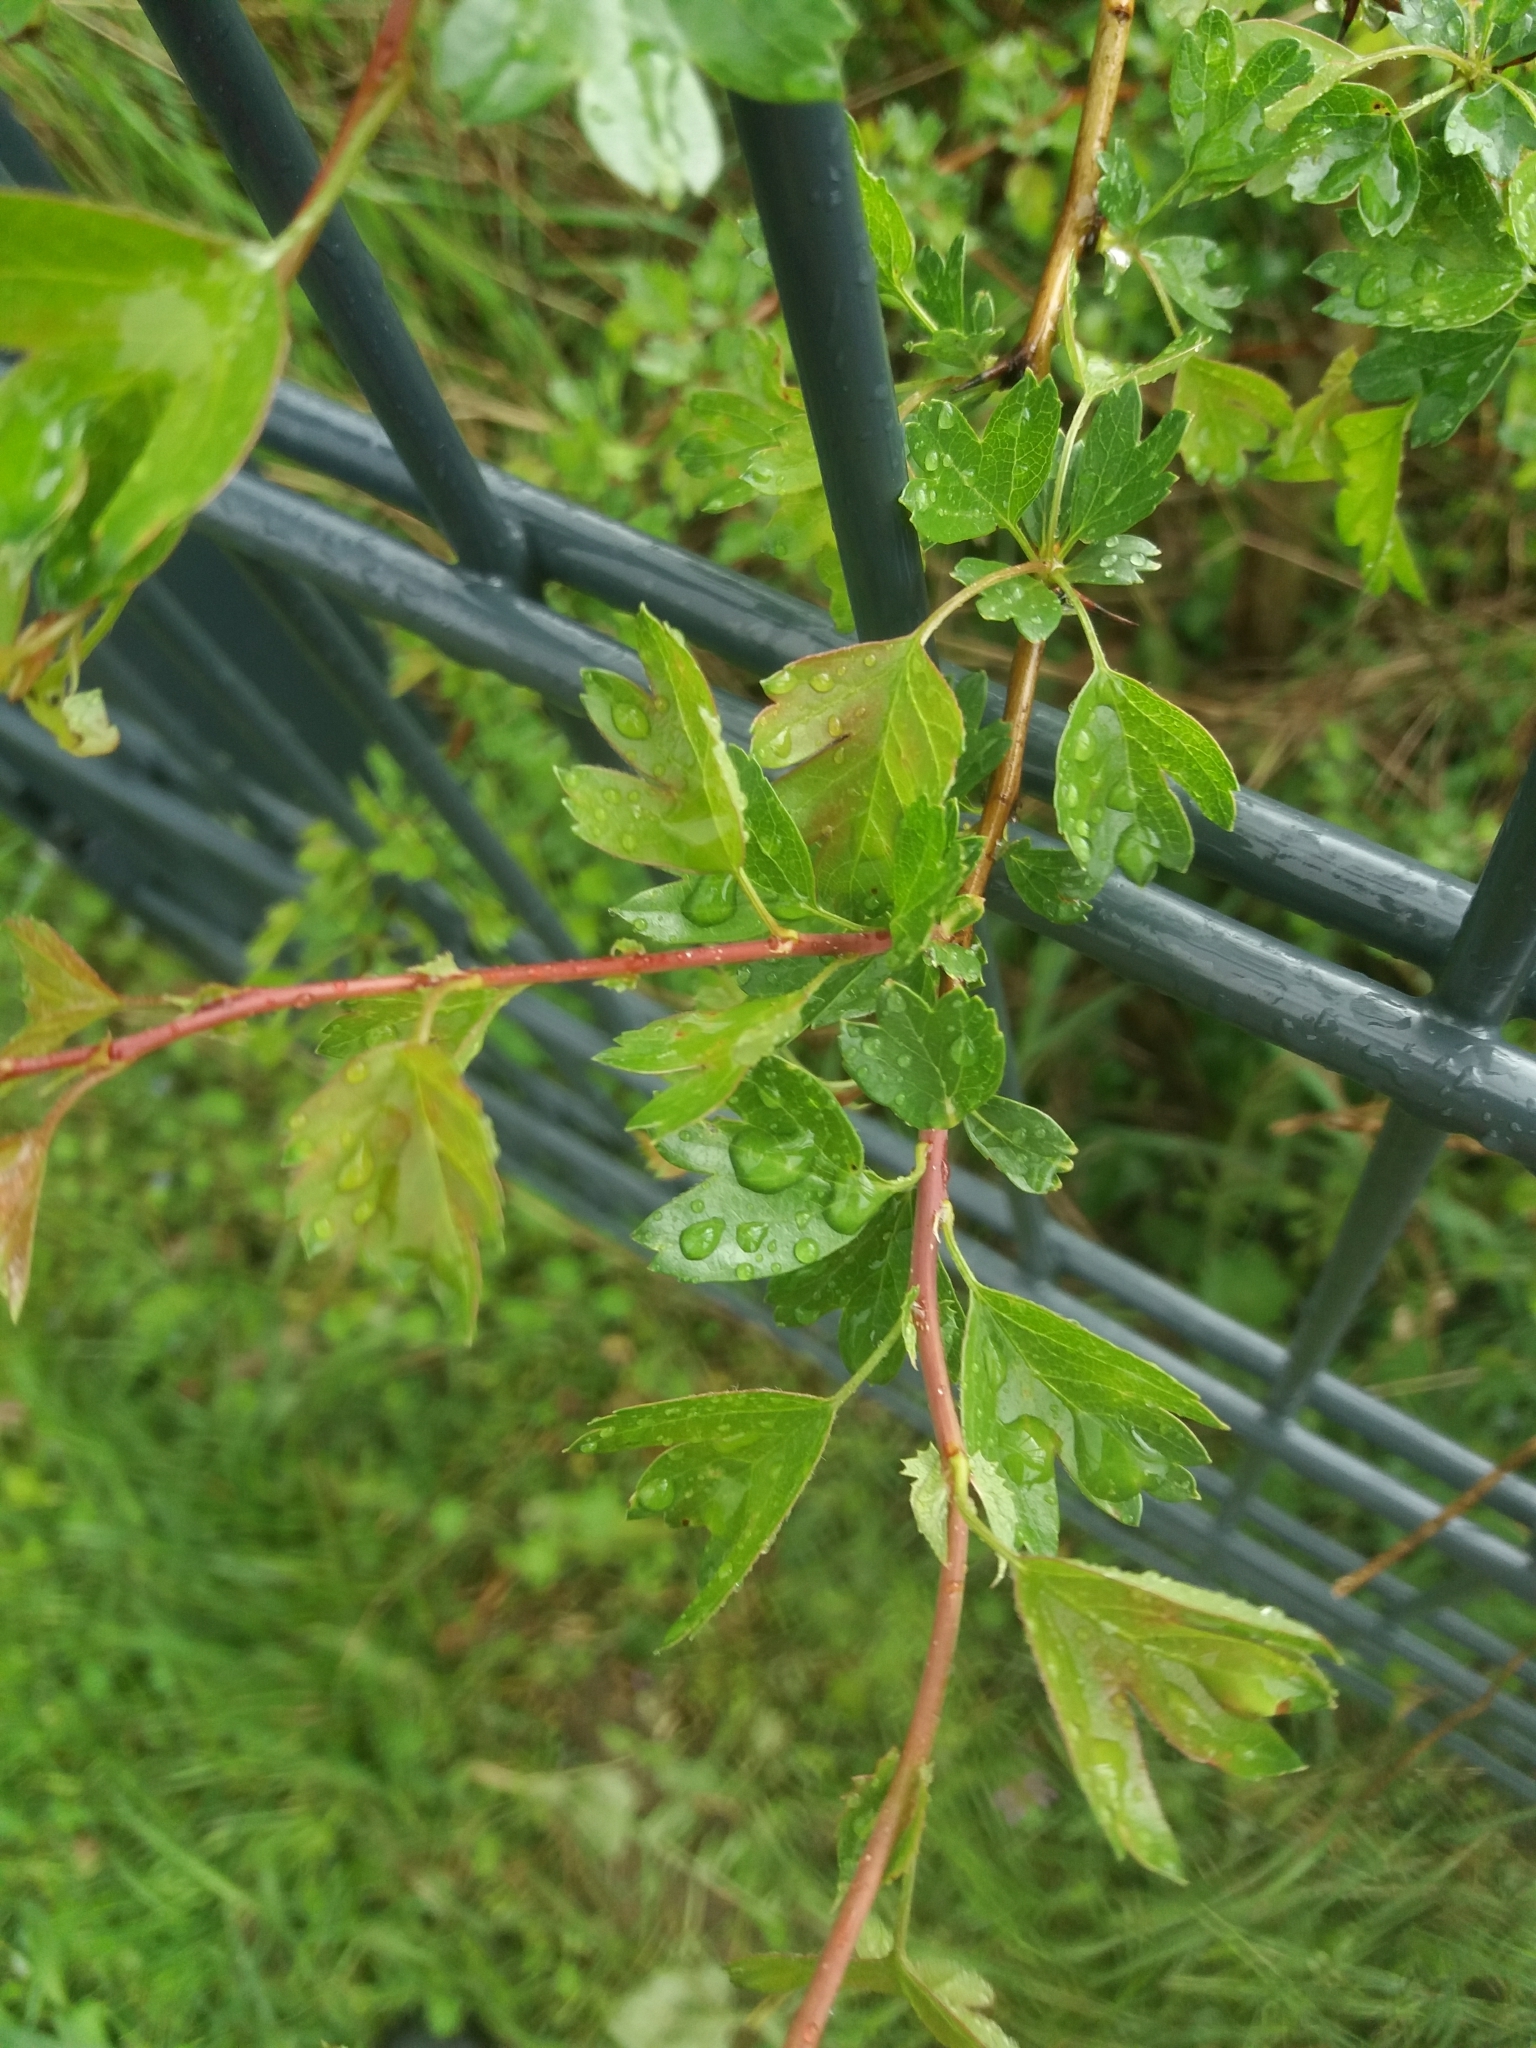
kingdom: Plantae
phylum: Tracheophyta
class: Magnoliopsida
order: Rosales
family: Rosaceae
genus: Crataegus
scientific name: Crataegus monogyna
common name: Hawthorn
